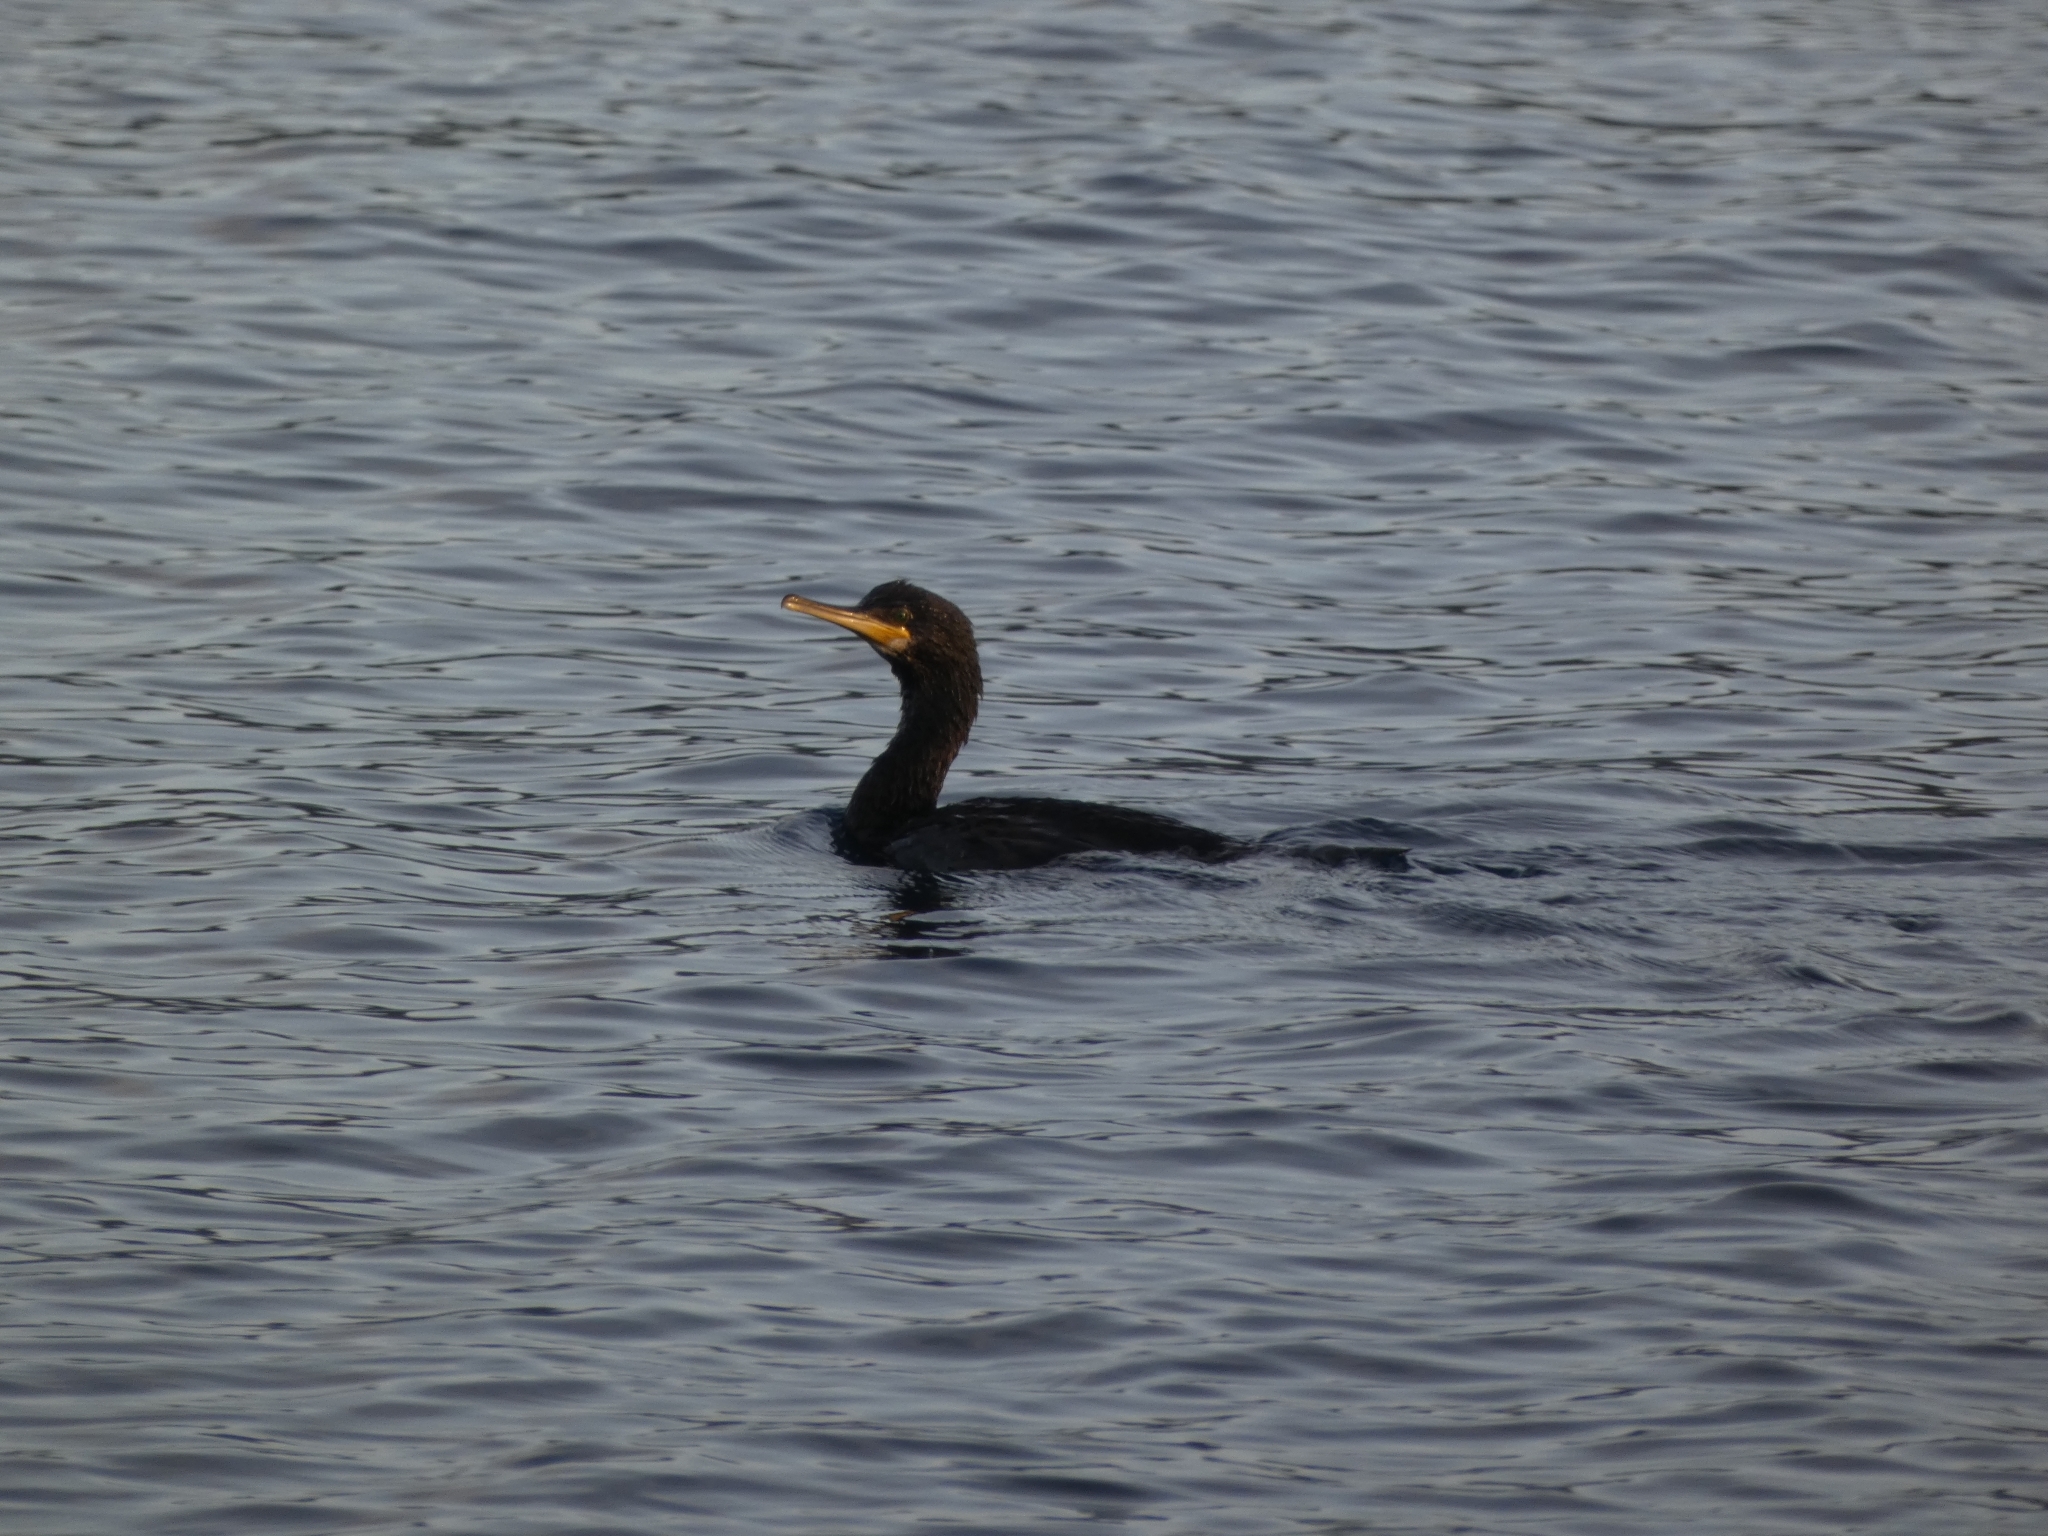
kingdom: Animalia
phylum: Chordata
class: Aves
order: Suliformes
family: Phalacrocoracidae
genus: Phalacrocorax
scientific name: Phalacrocorax aristotelis
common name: European shag
